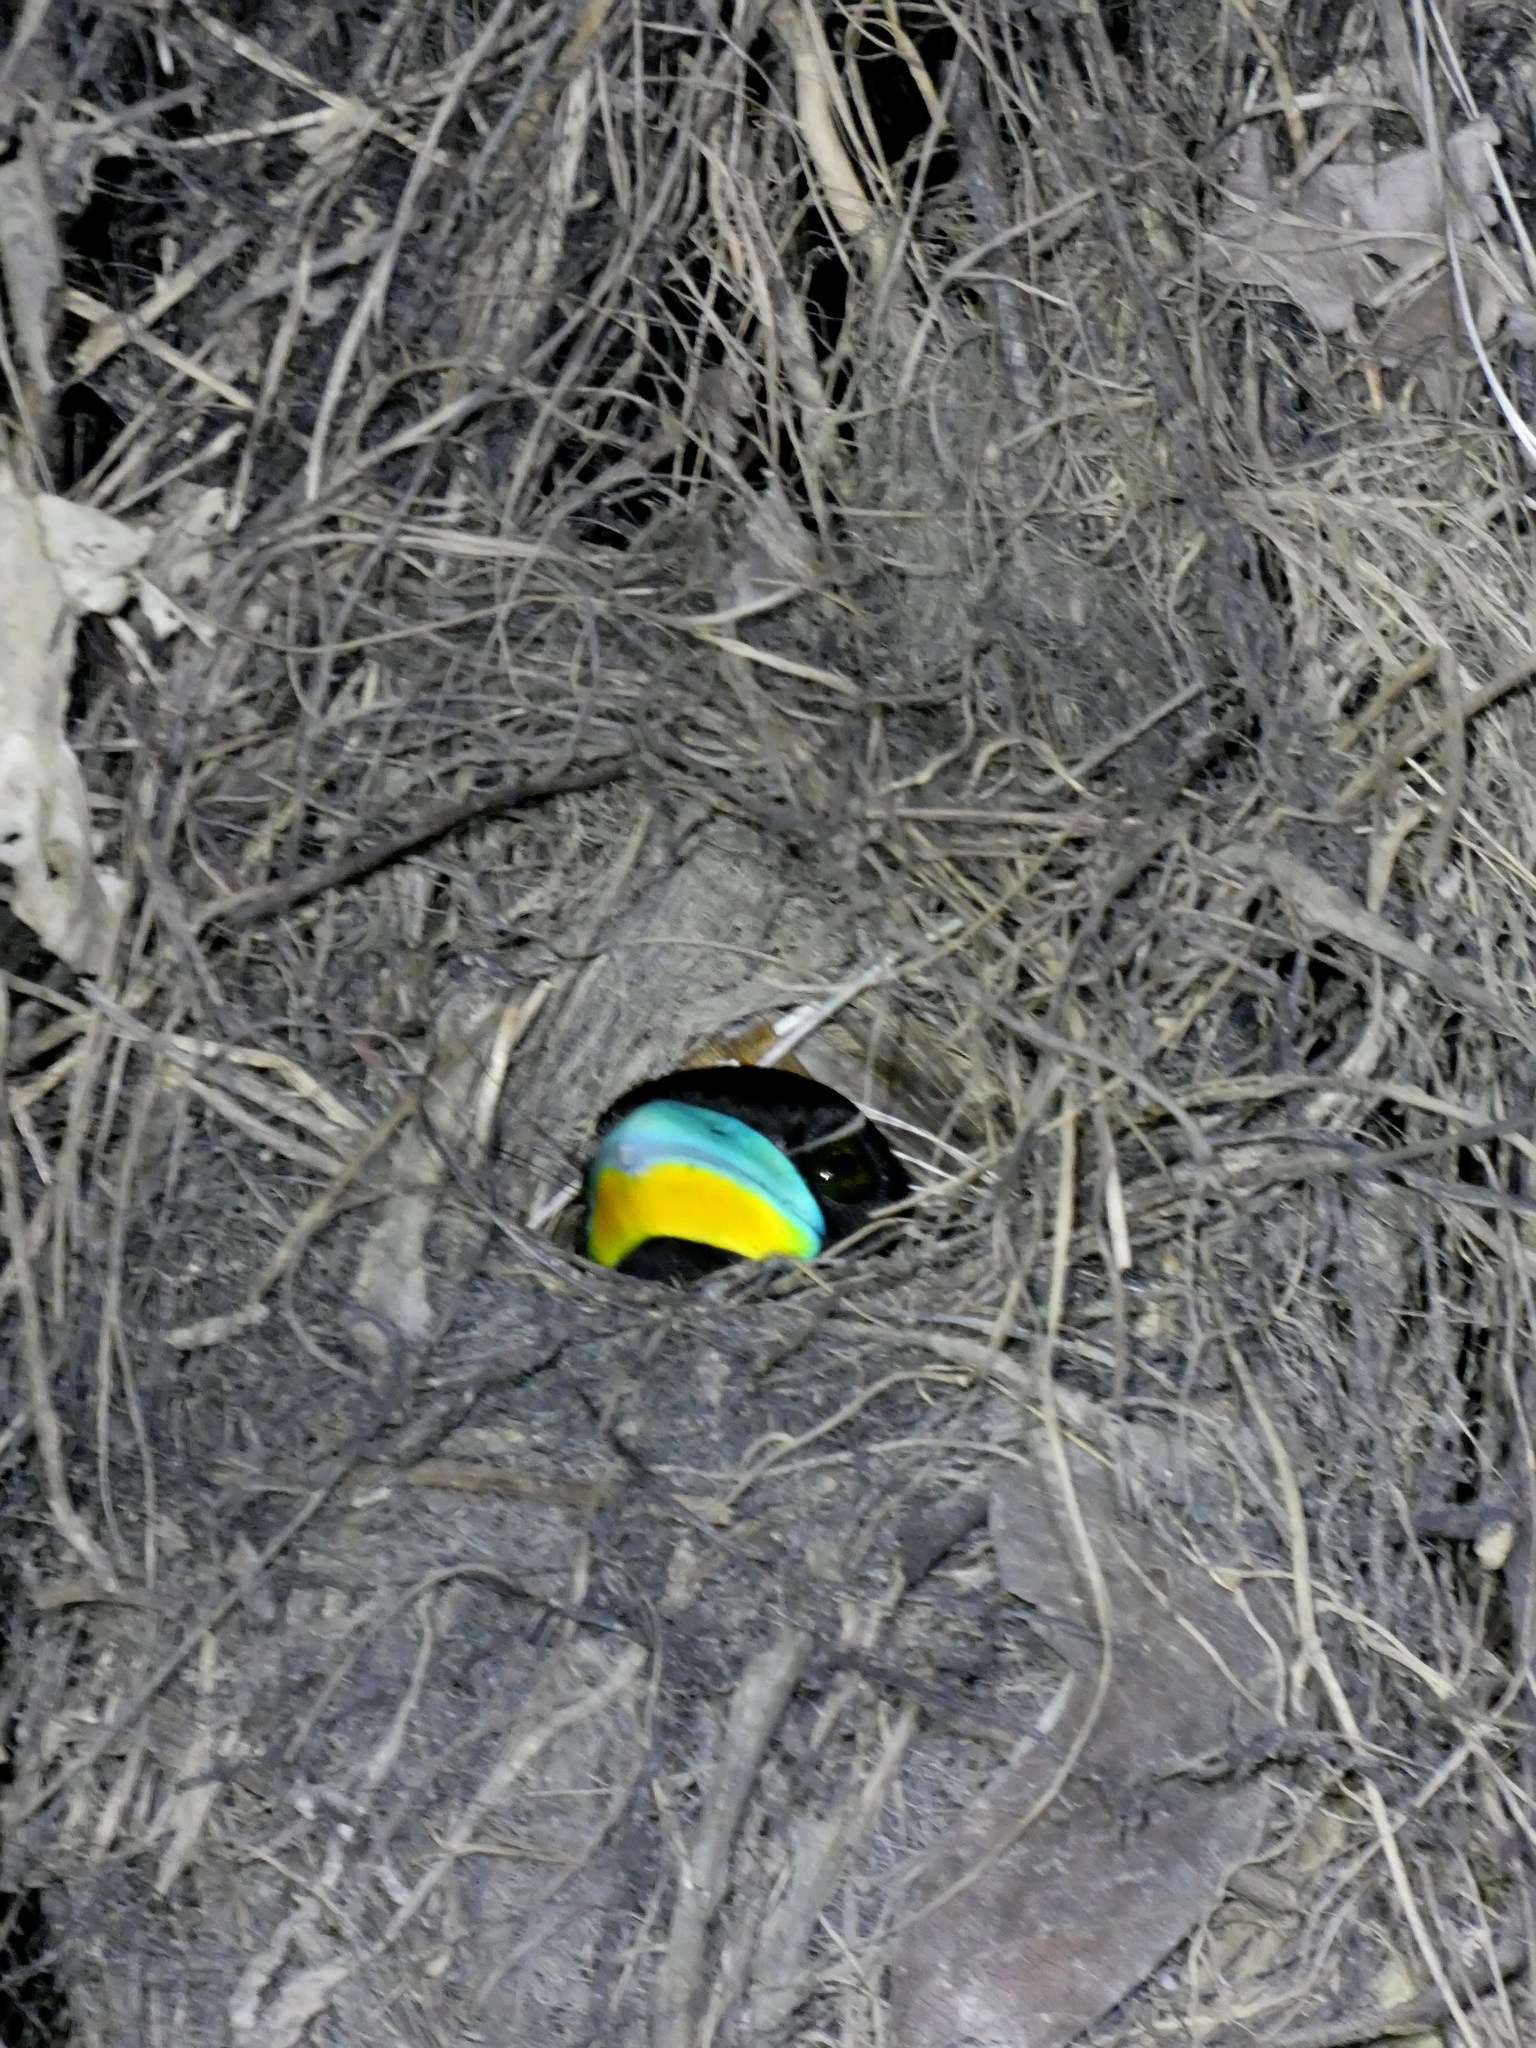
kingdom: Animalia
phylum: Chordata
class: Aves
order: Passeriformes
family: Eurylaimidae
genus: Cymbirhynchus
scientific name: Cymbirhynchus macrorhynchos
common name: Black-and-red broadbill
